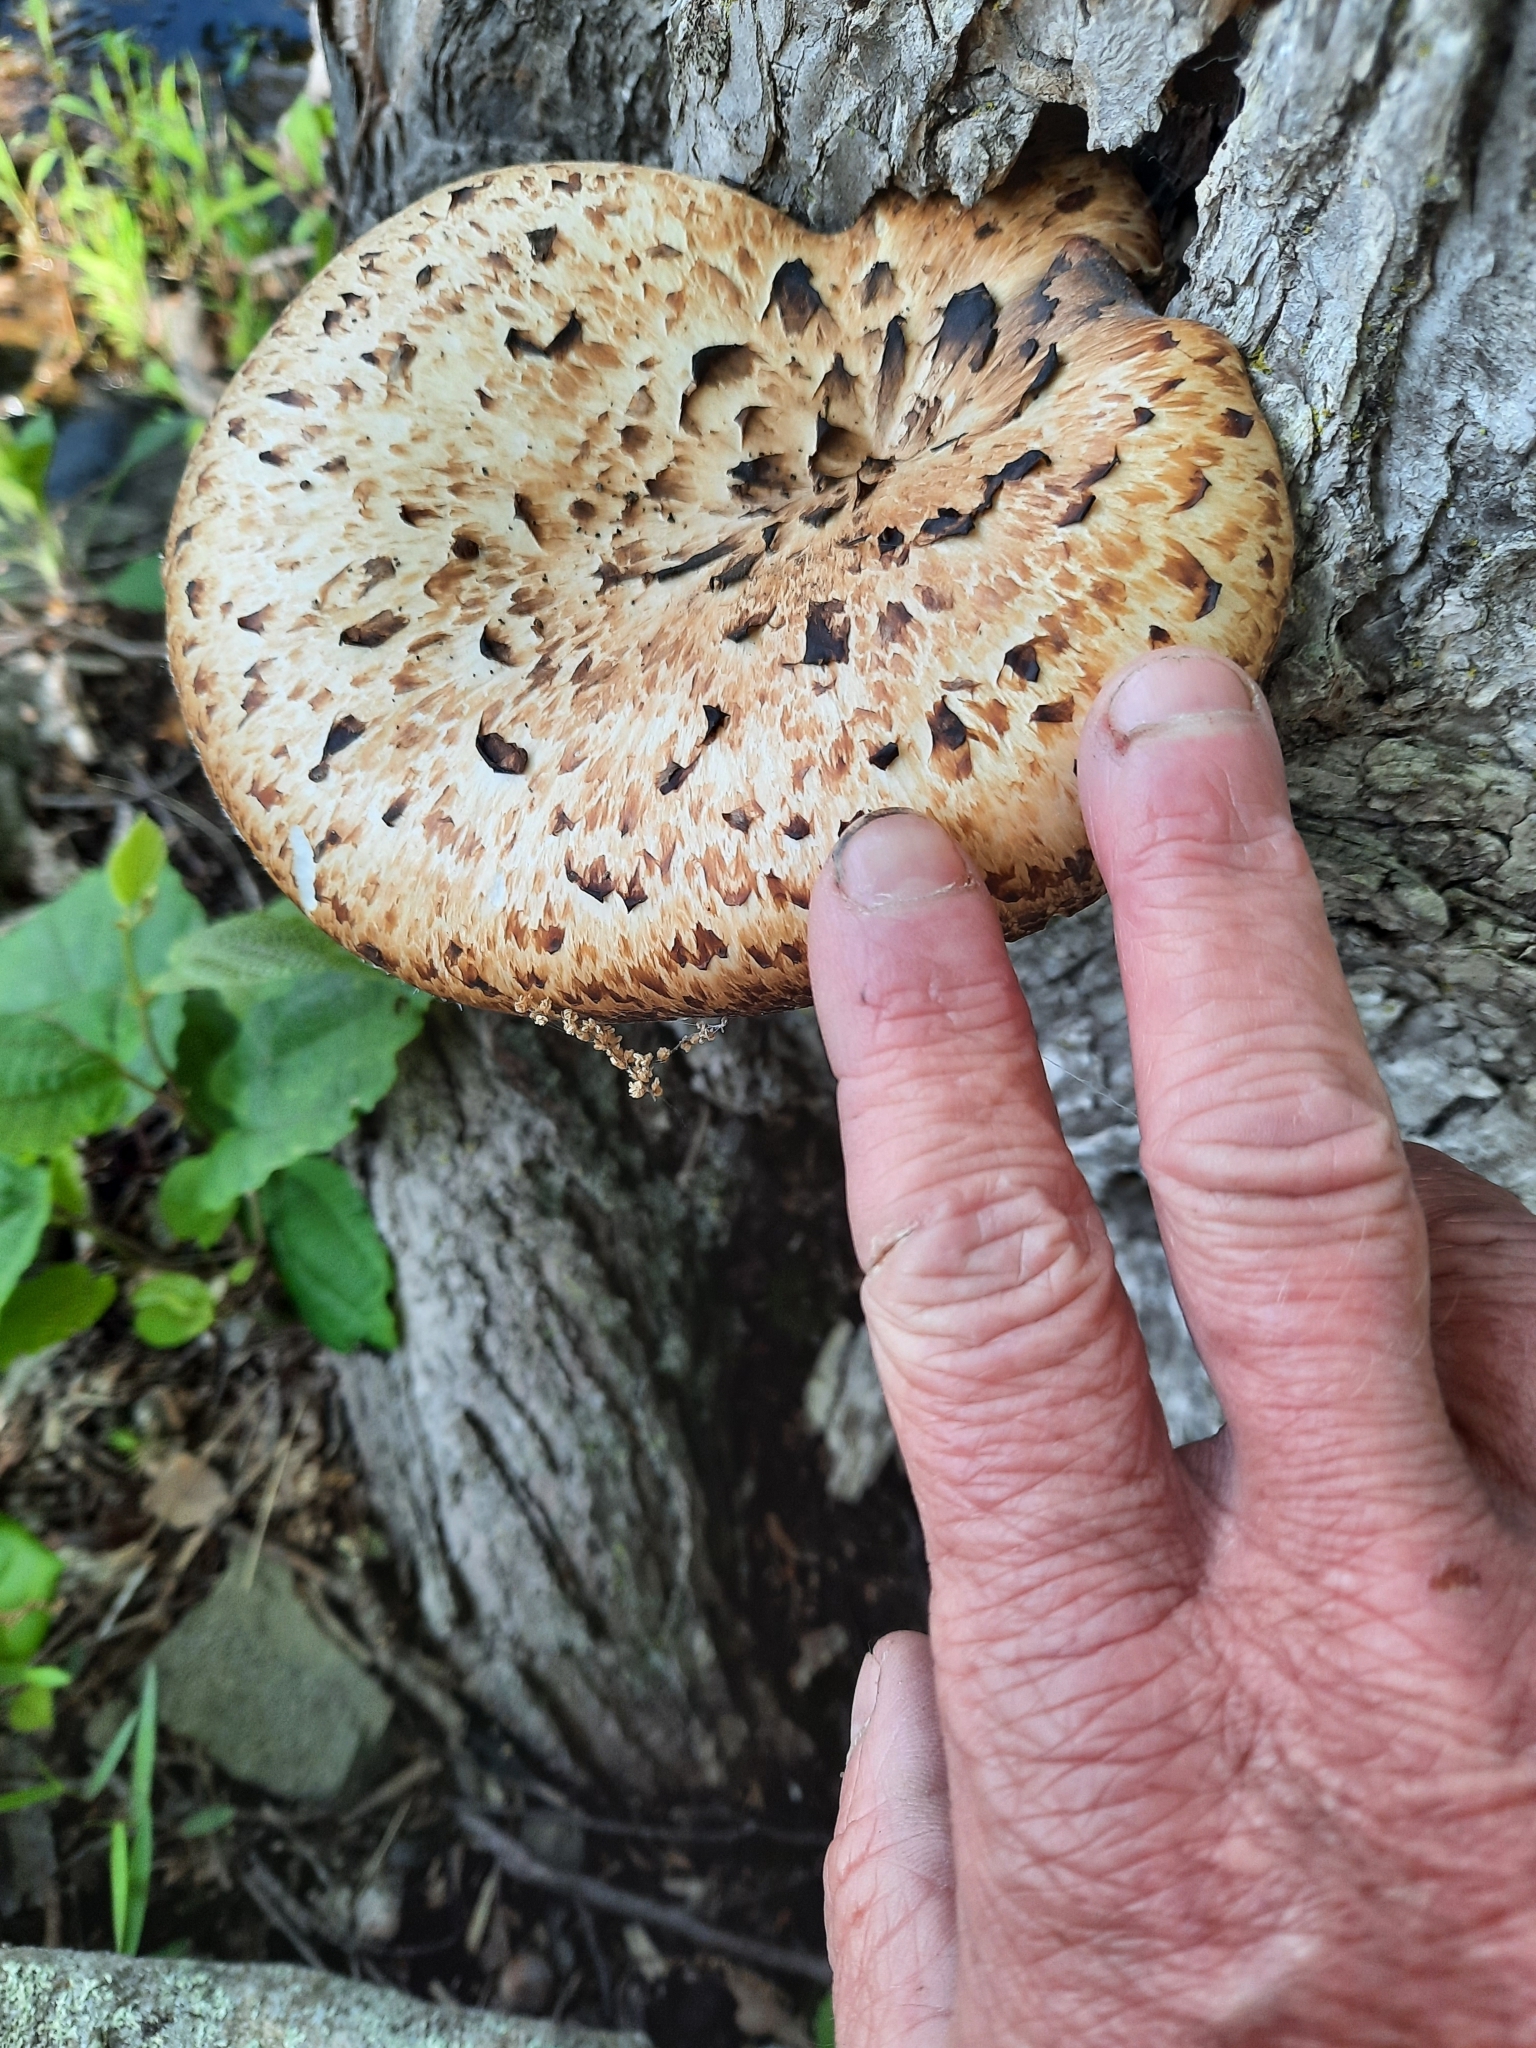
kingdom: Fungi
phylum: Basidiomycota
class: Agaricomycetes
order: Polyporales
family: Polyporaceae
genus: Cerioporus
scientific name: Cerioporus squamosus
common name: Dryad's saddle
